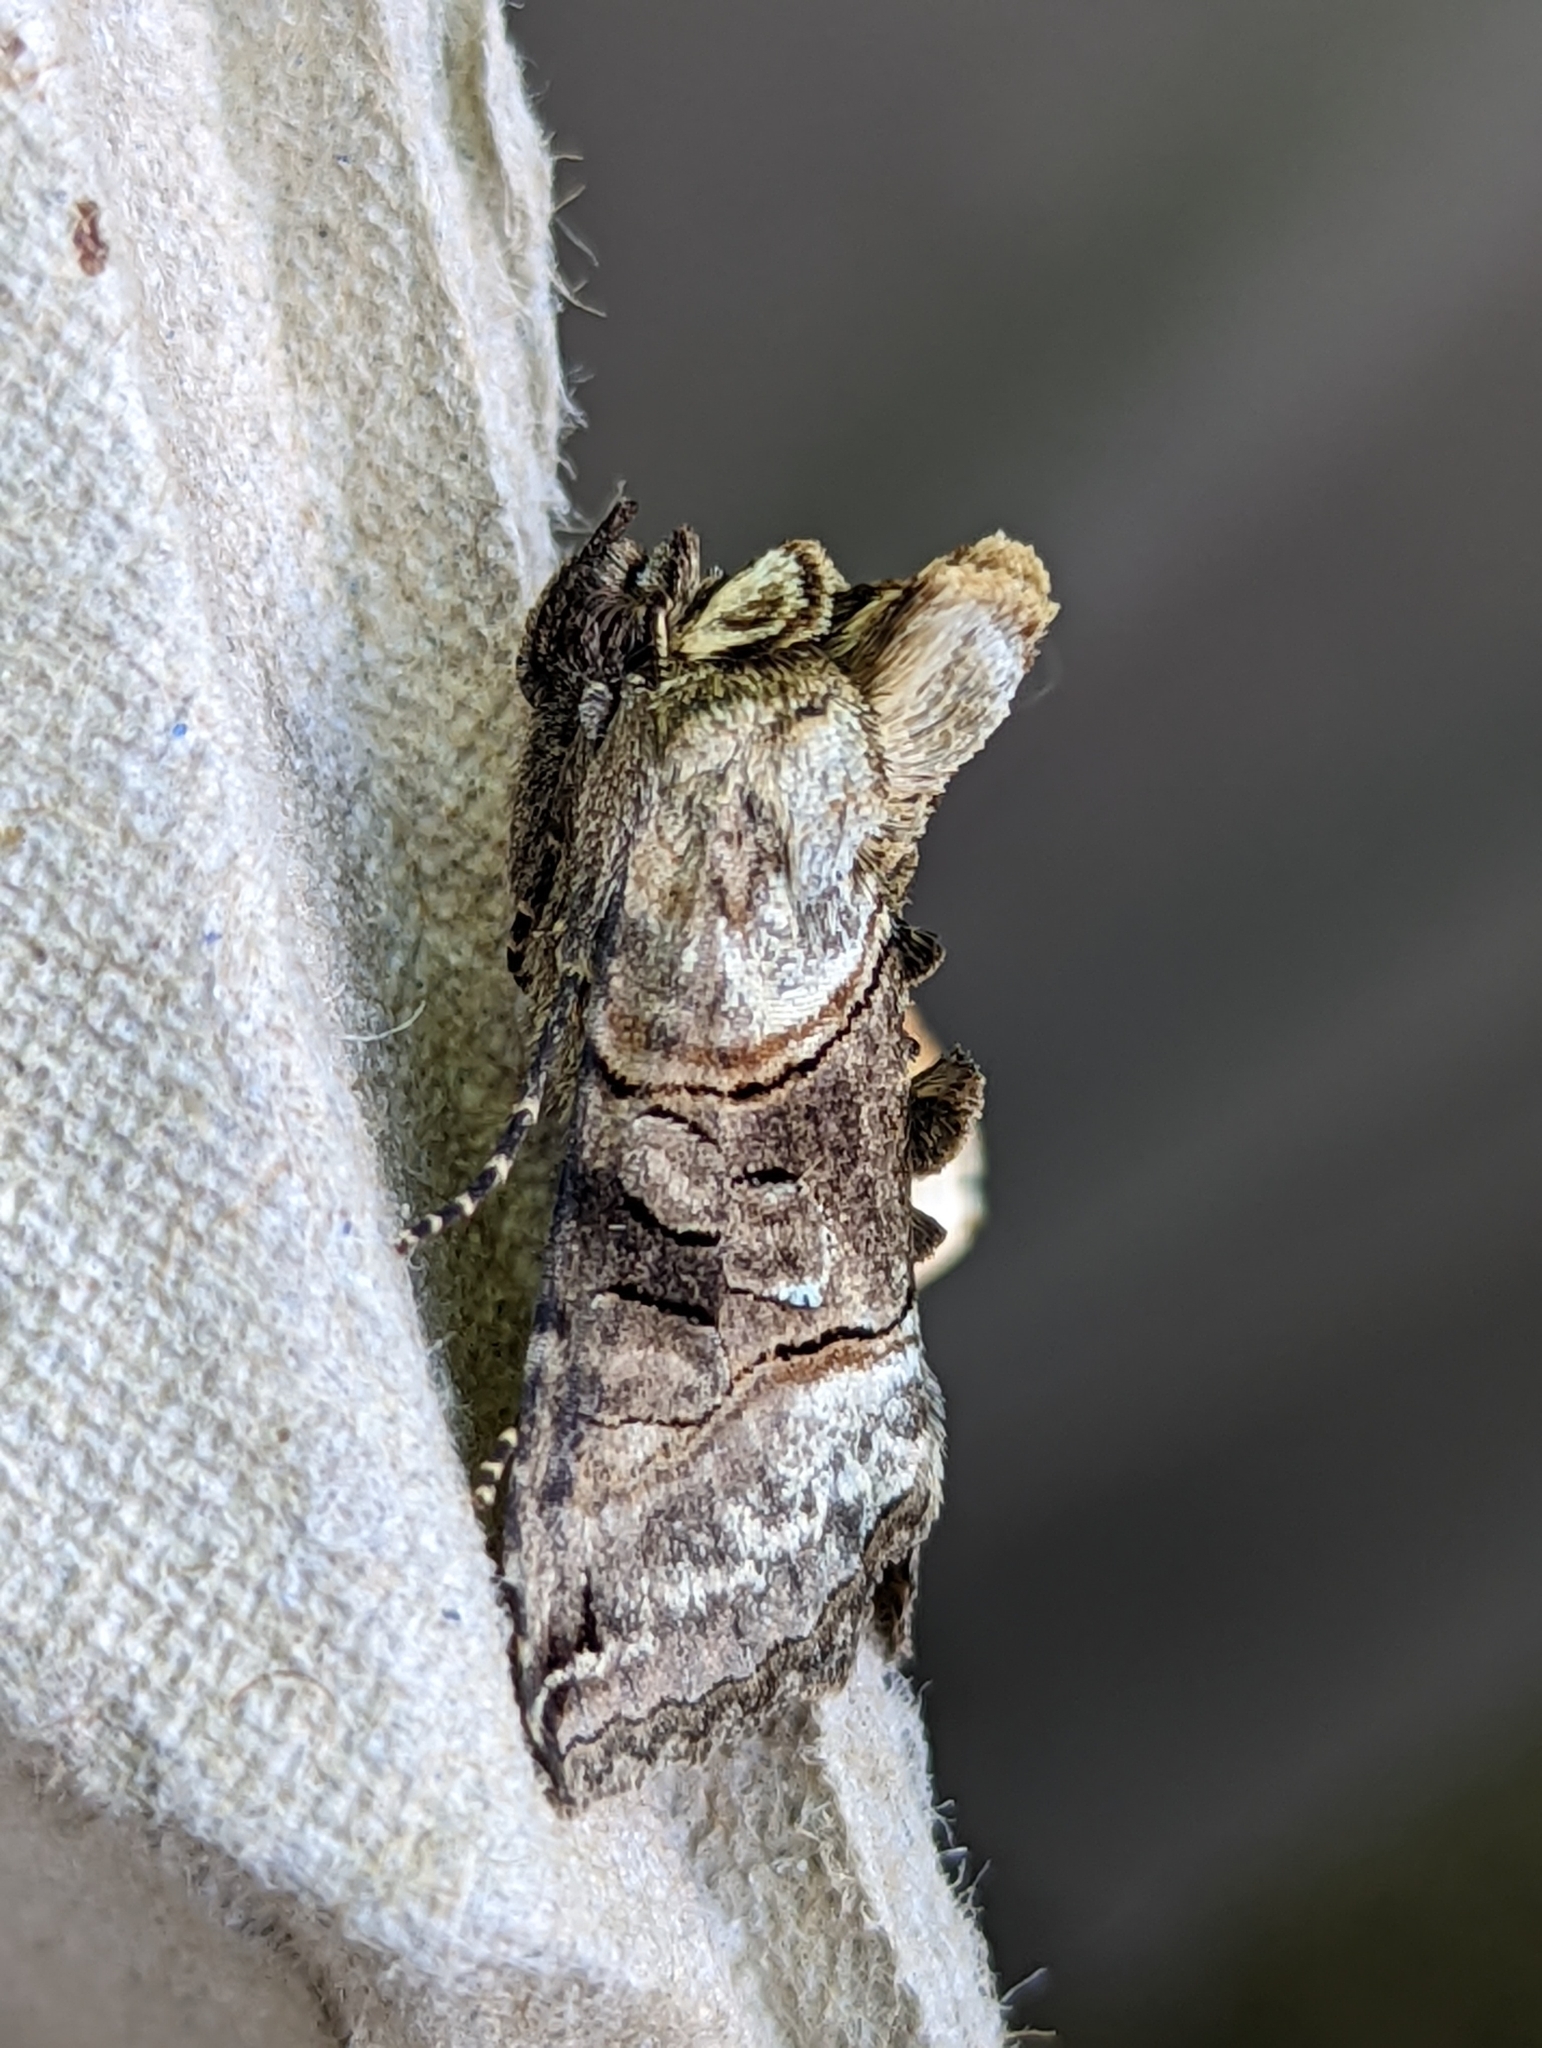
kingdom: Animalia
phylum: Arthropoda
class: Insecta
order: Lepidoptera
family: Noctuidae
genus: Abrostola
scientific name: Abrostola tripartita
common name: Spectacle
